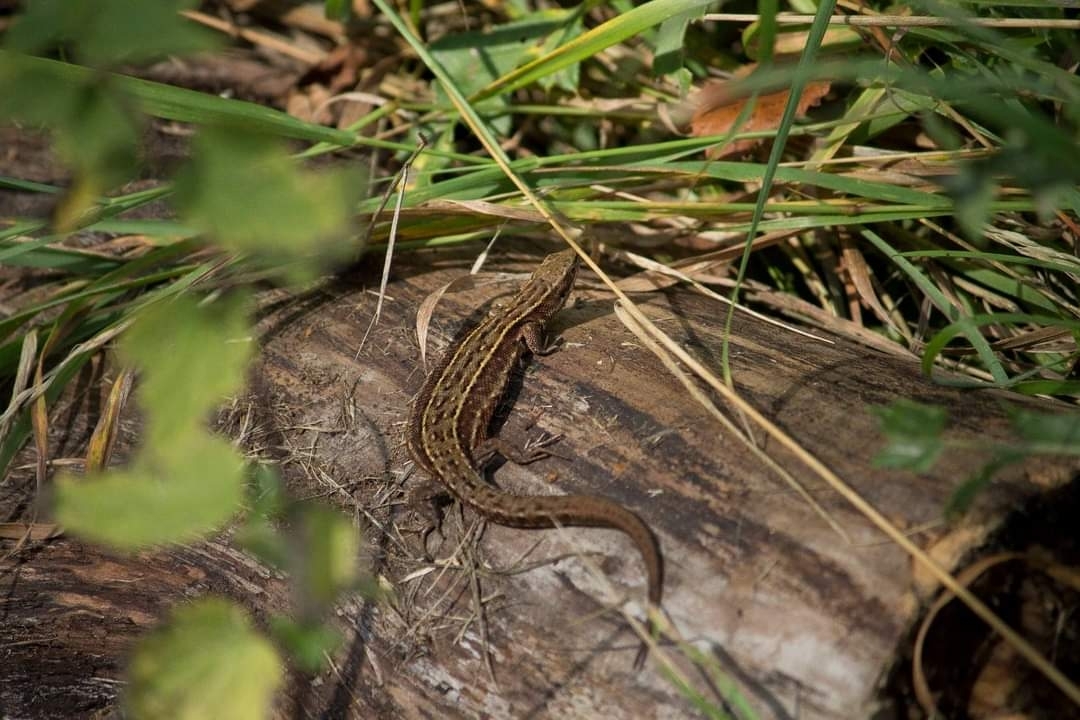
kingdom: Animalia
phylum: Chordata
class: Squamata
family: Lacertidae
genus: Zootoca
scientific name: Zootoca vivipara
